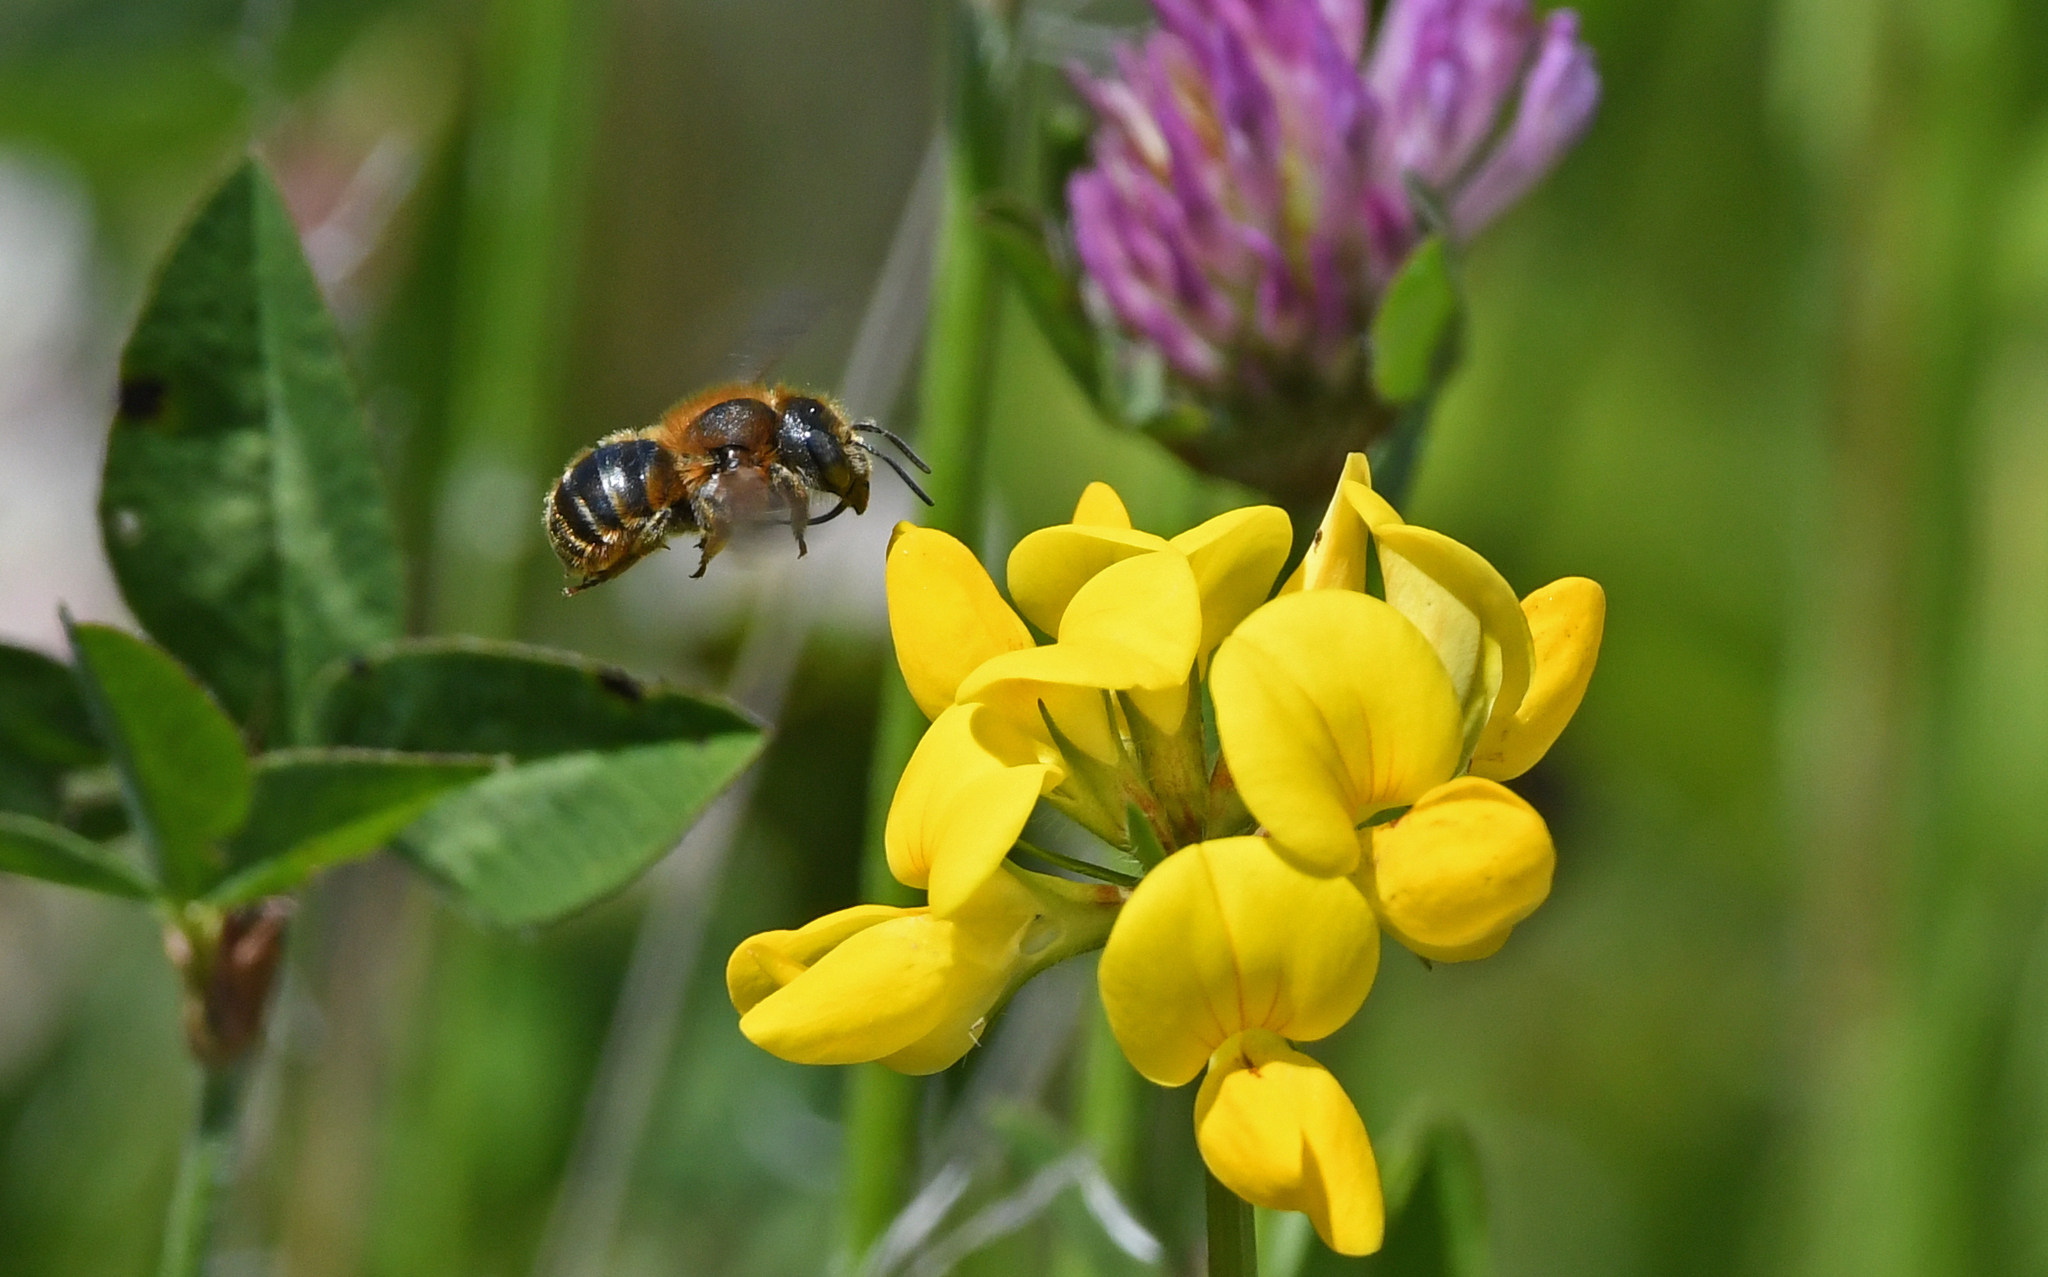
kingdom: Animalia
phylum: Arthropoda
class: Insecta
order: Hymenoptera
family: Megachilidae
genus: Osmia
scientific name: Osmia aurulenta
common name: Gold-fringed mason bee
